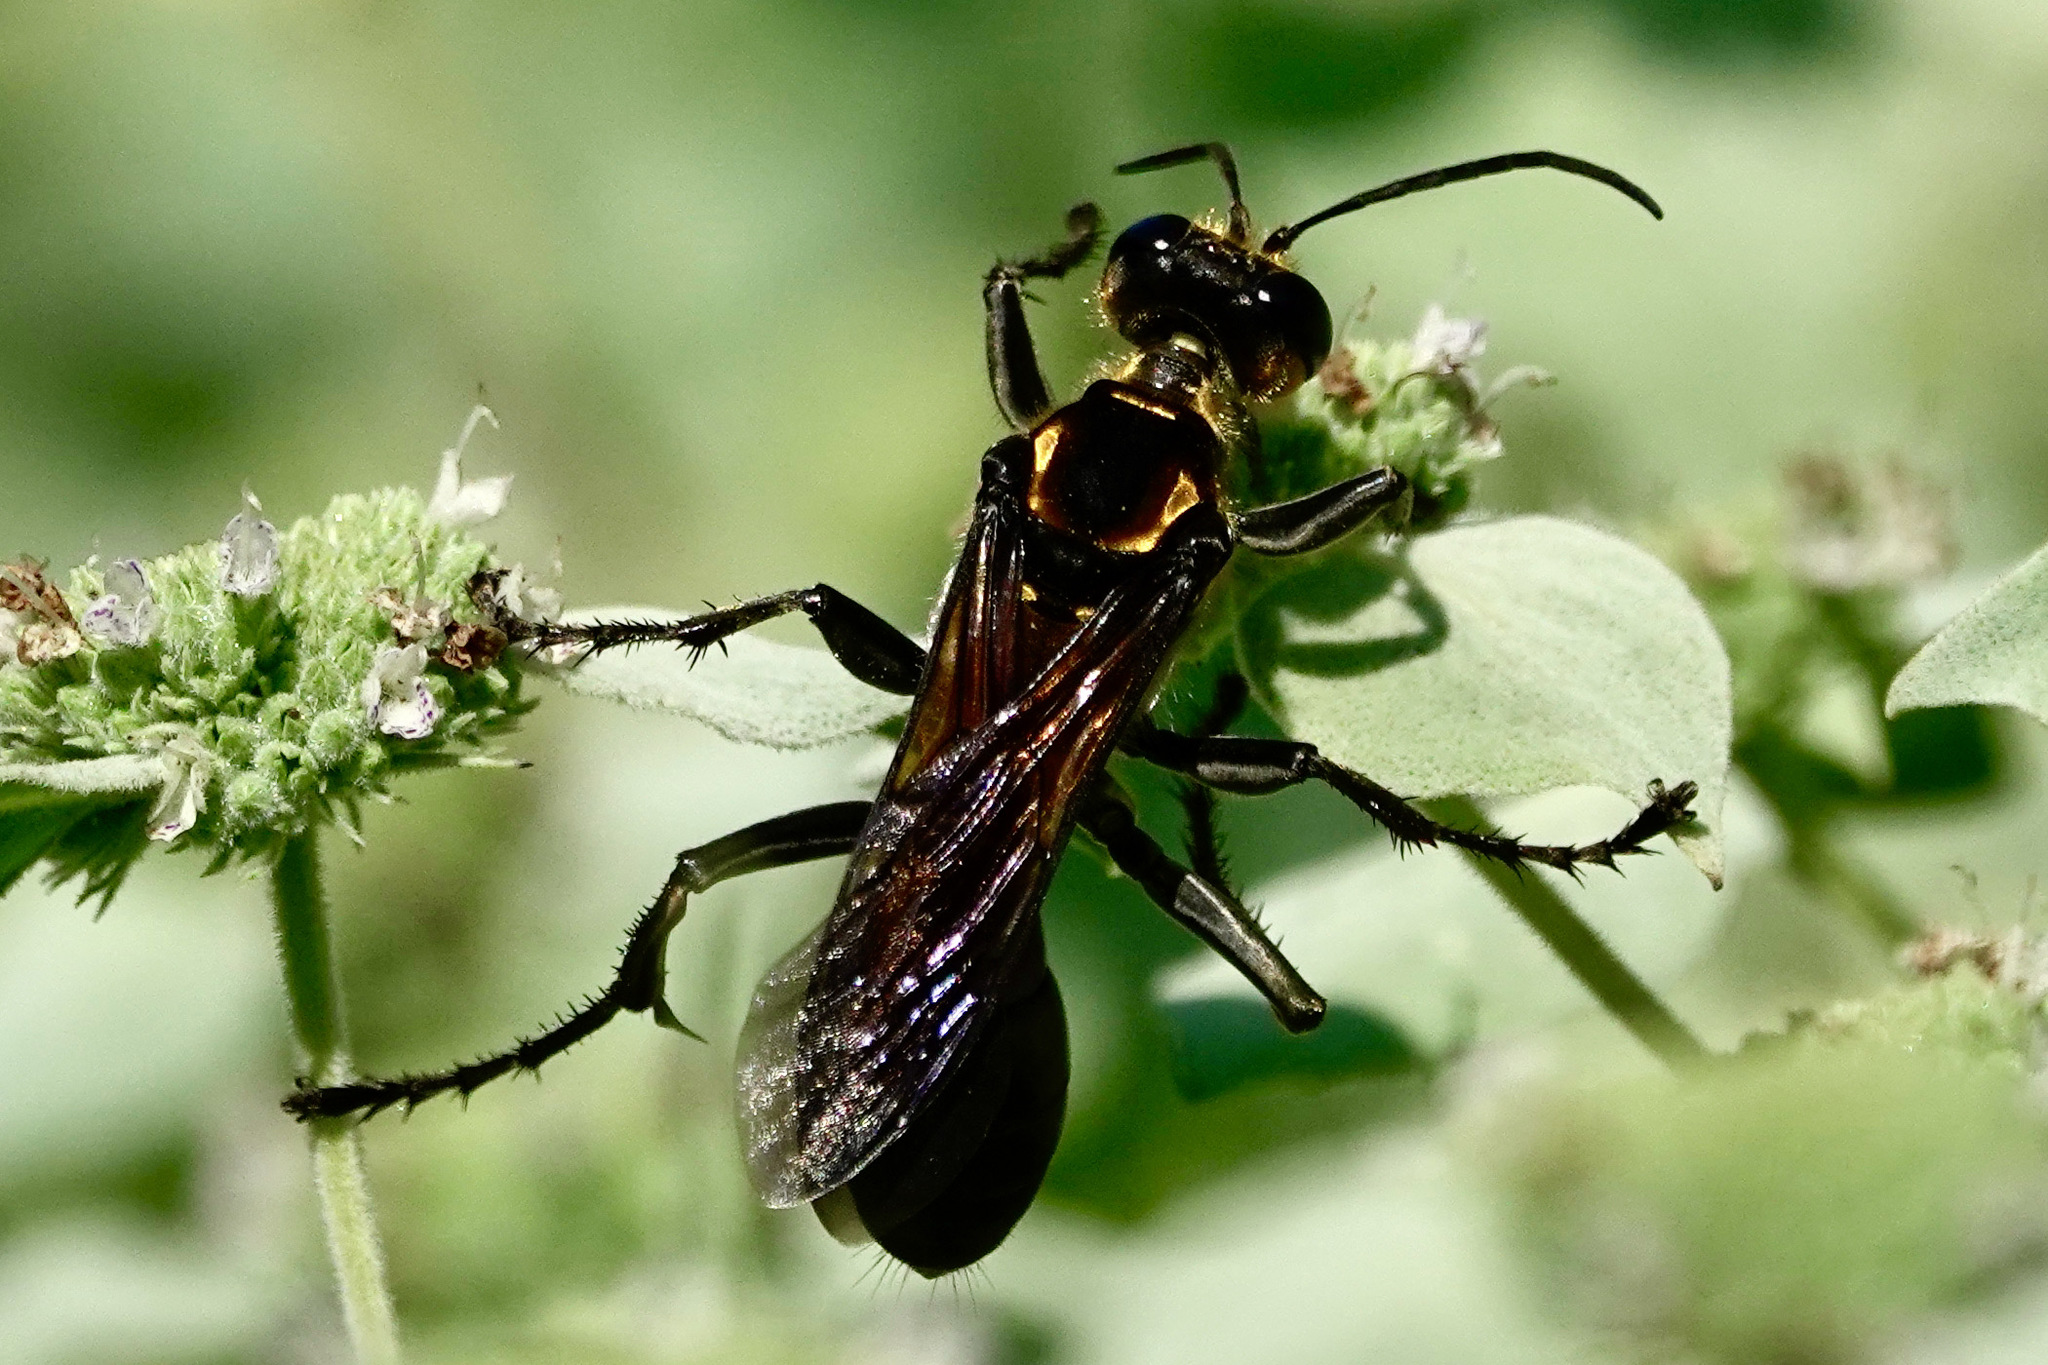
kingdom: Animalia
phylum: Arthropoda
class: Insecta
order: Hymenoptera
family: Sphecidae
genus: Sphex
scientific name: Sphex habenus
